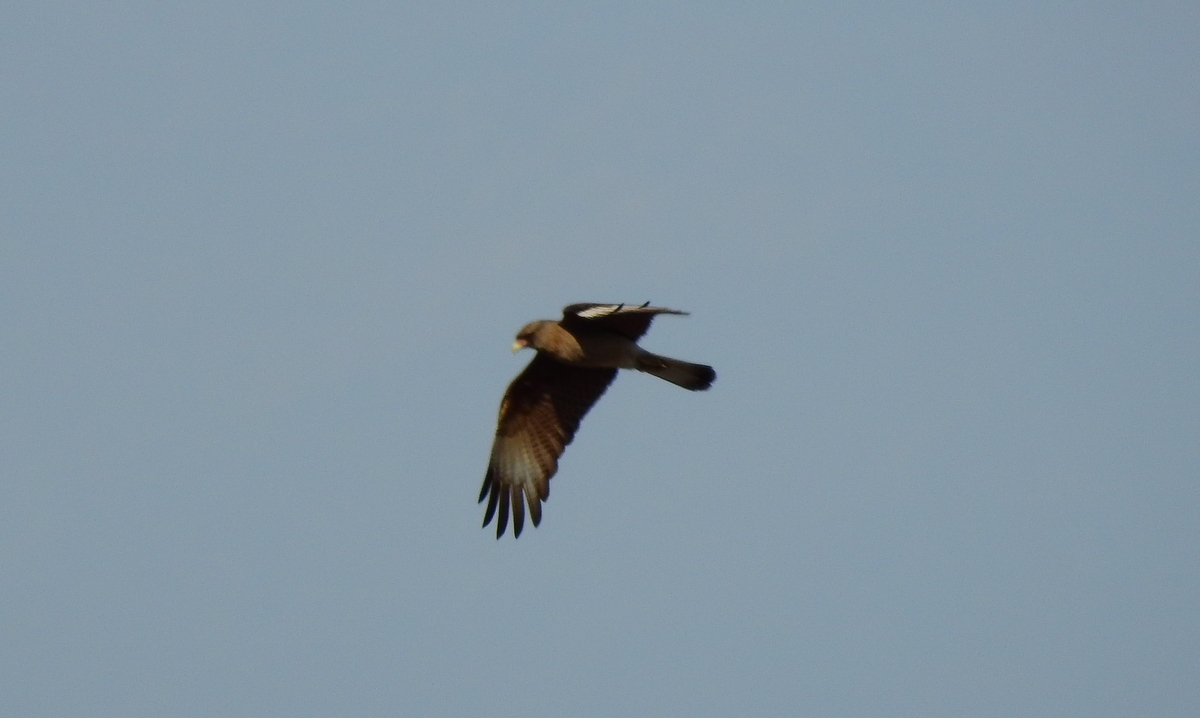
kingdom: Animalia
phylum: Chordata
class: Aves
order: Falconiformes
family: Falconidae
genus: Daptrius
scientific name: Daptrius
